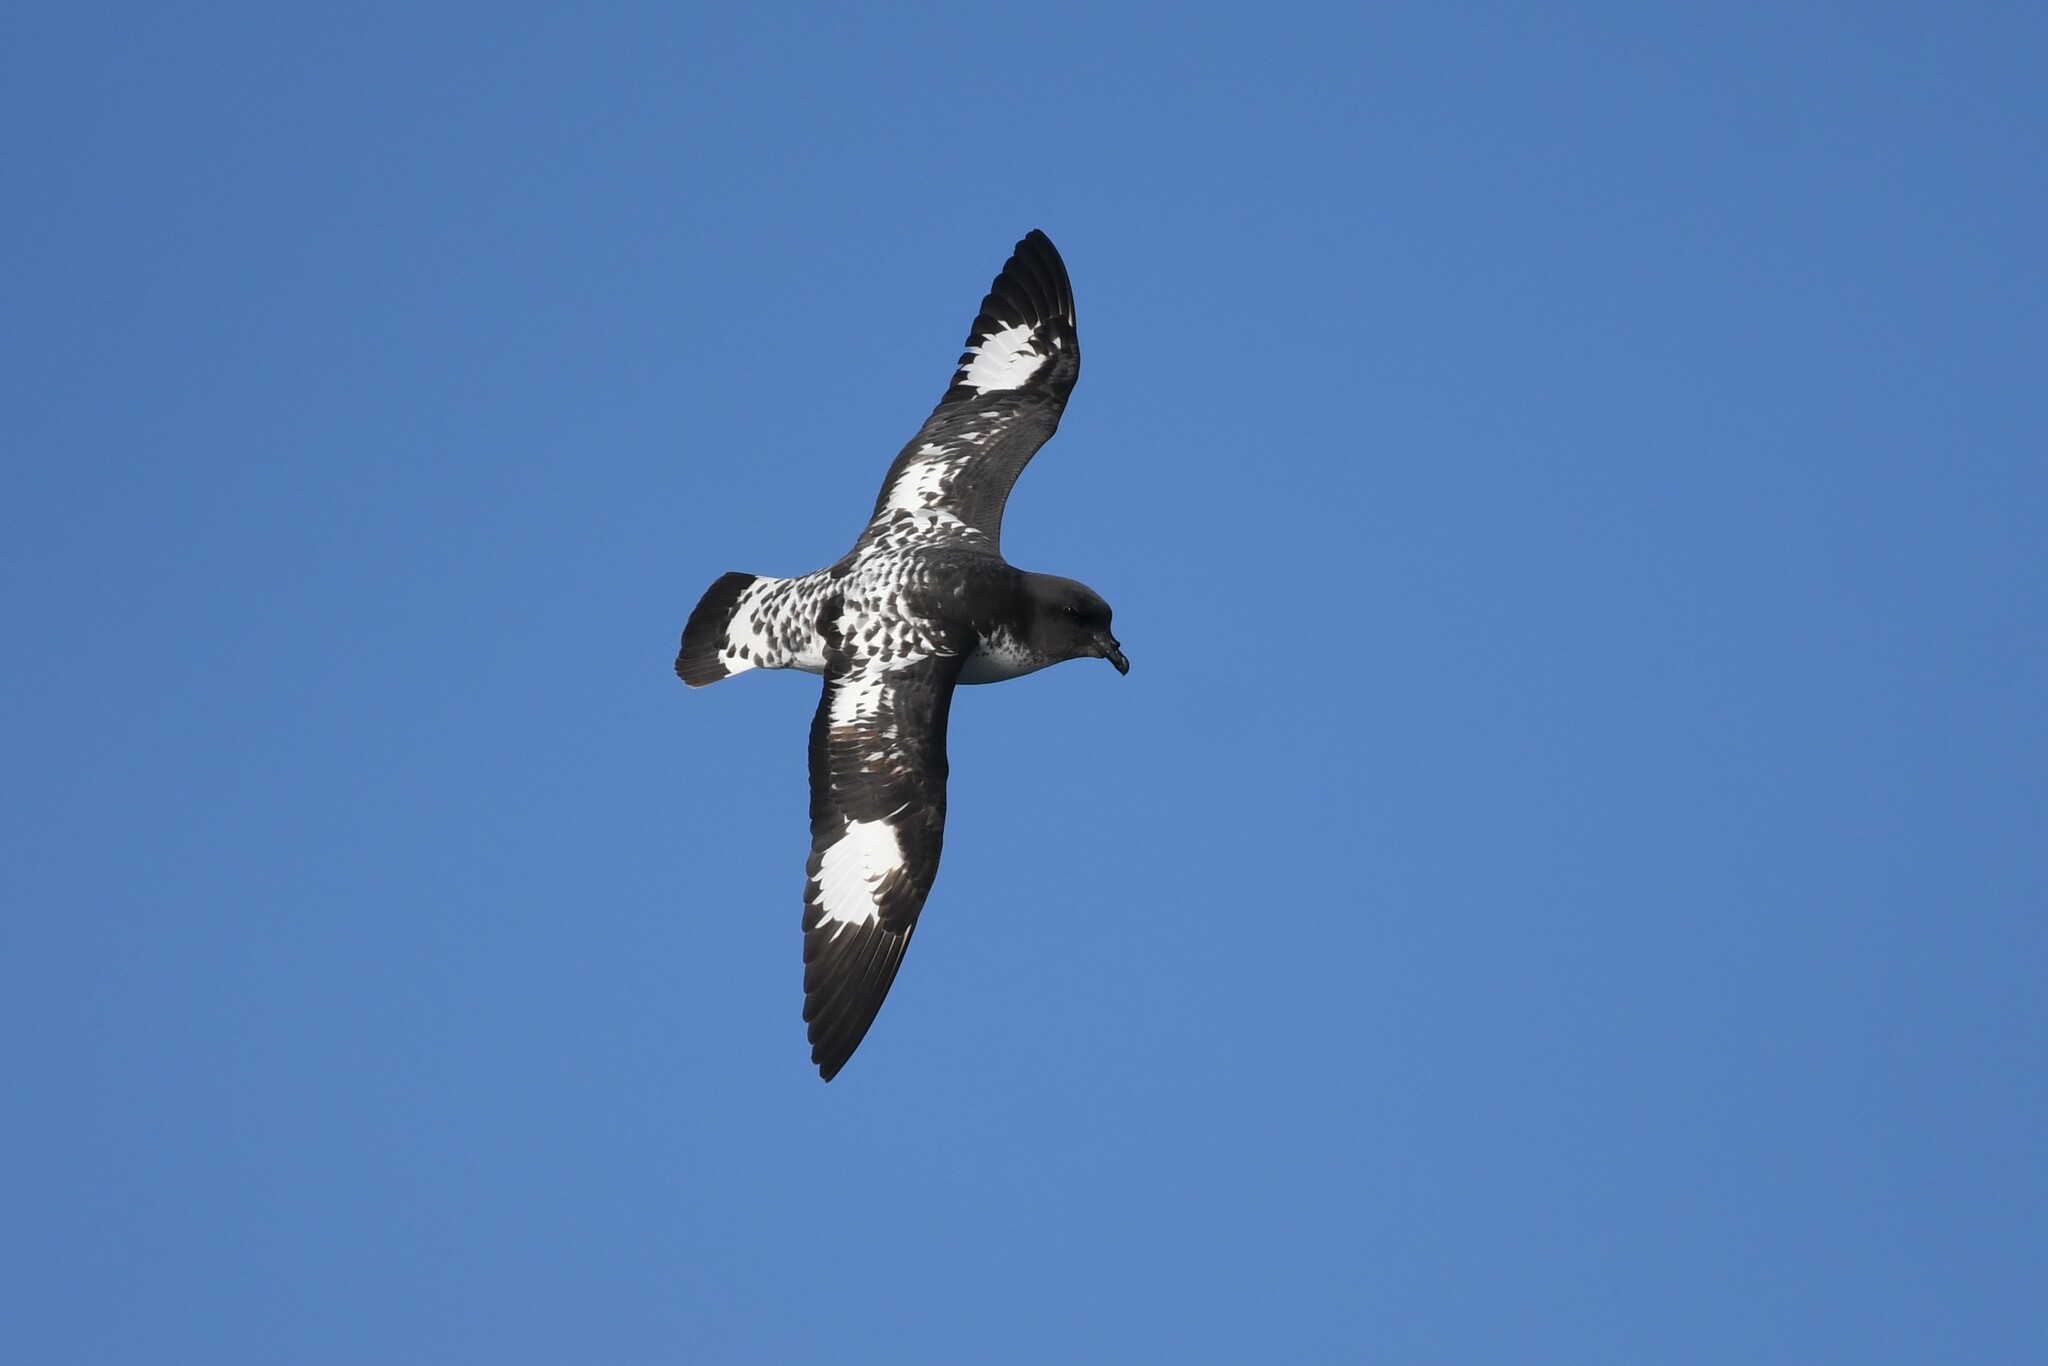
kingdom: Animalia
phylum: Chordata
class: Aves
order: Procellariiformes
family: Procellariidae
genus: Daption
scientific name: Daption capense
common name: Cape petrel
